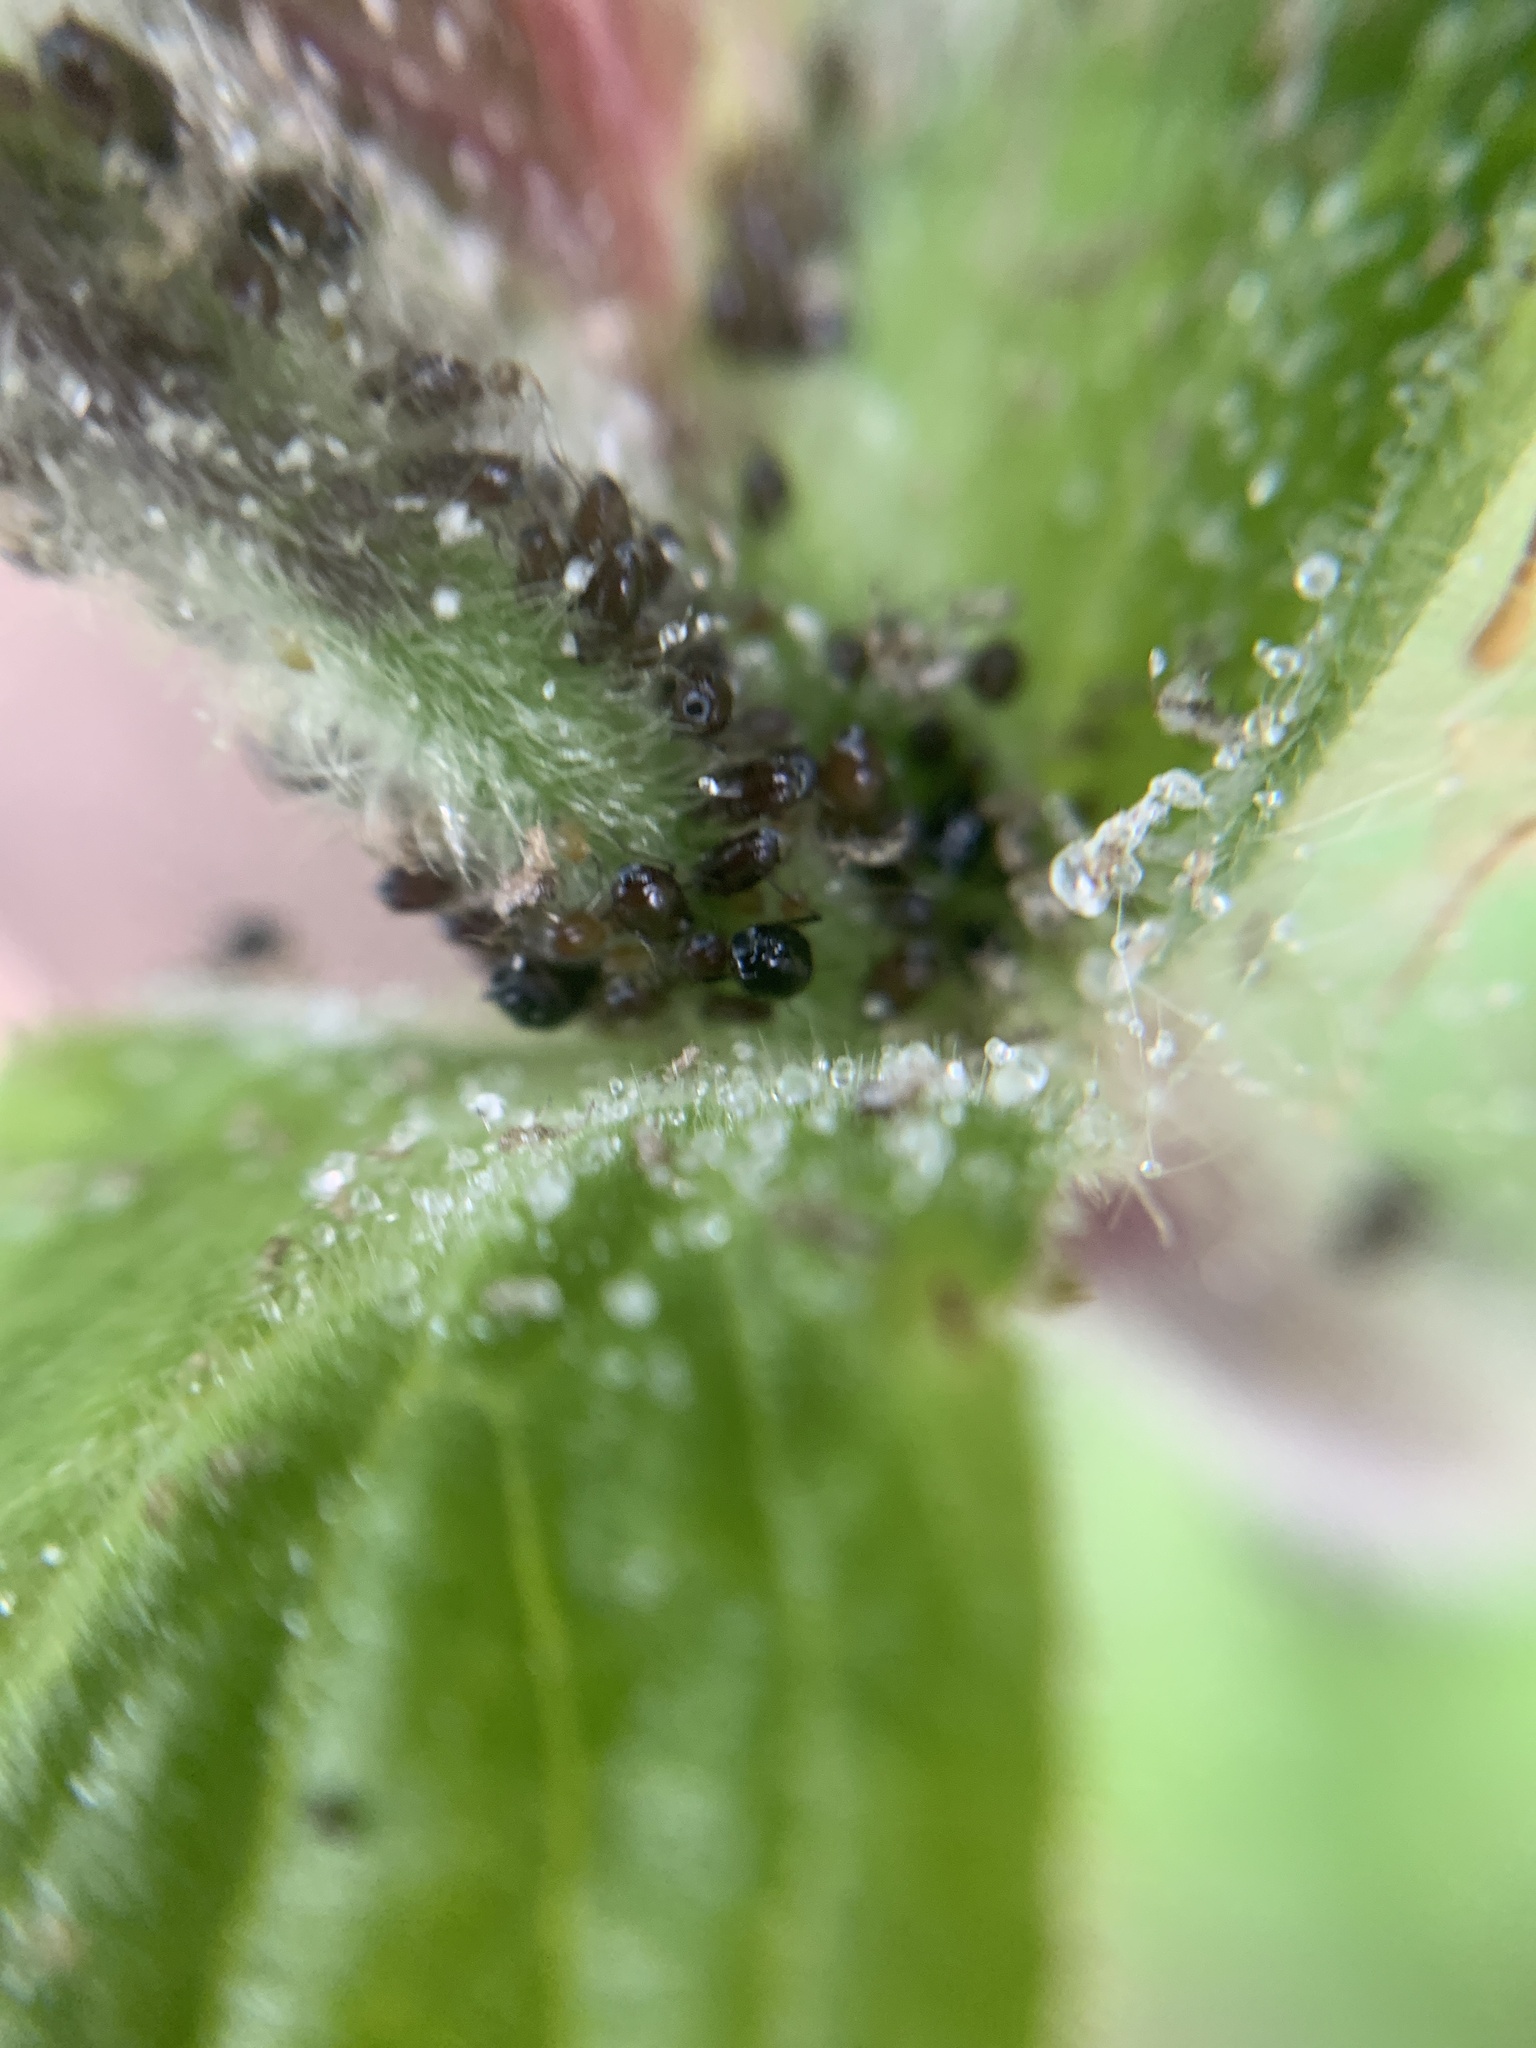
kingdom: Animalia
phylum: Arthropoda
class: Insecta
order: Hemiptera
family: Aphididae
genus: Aphis
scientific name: Aphis cucubali
